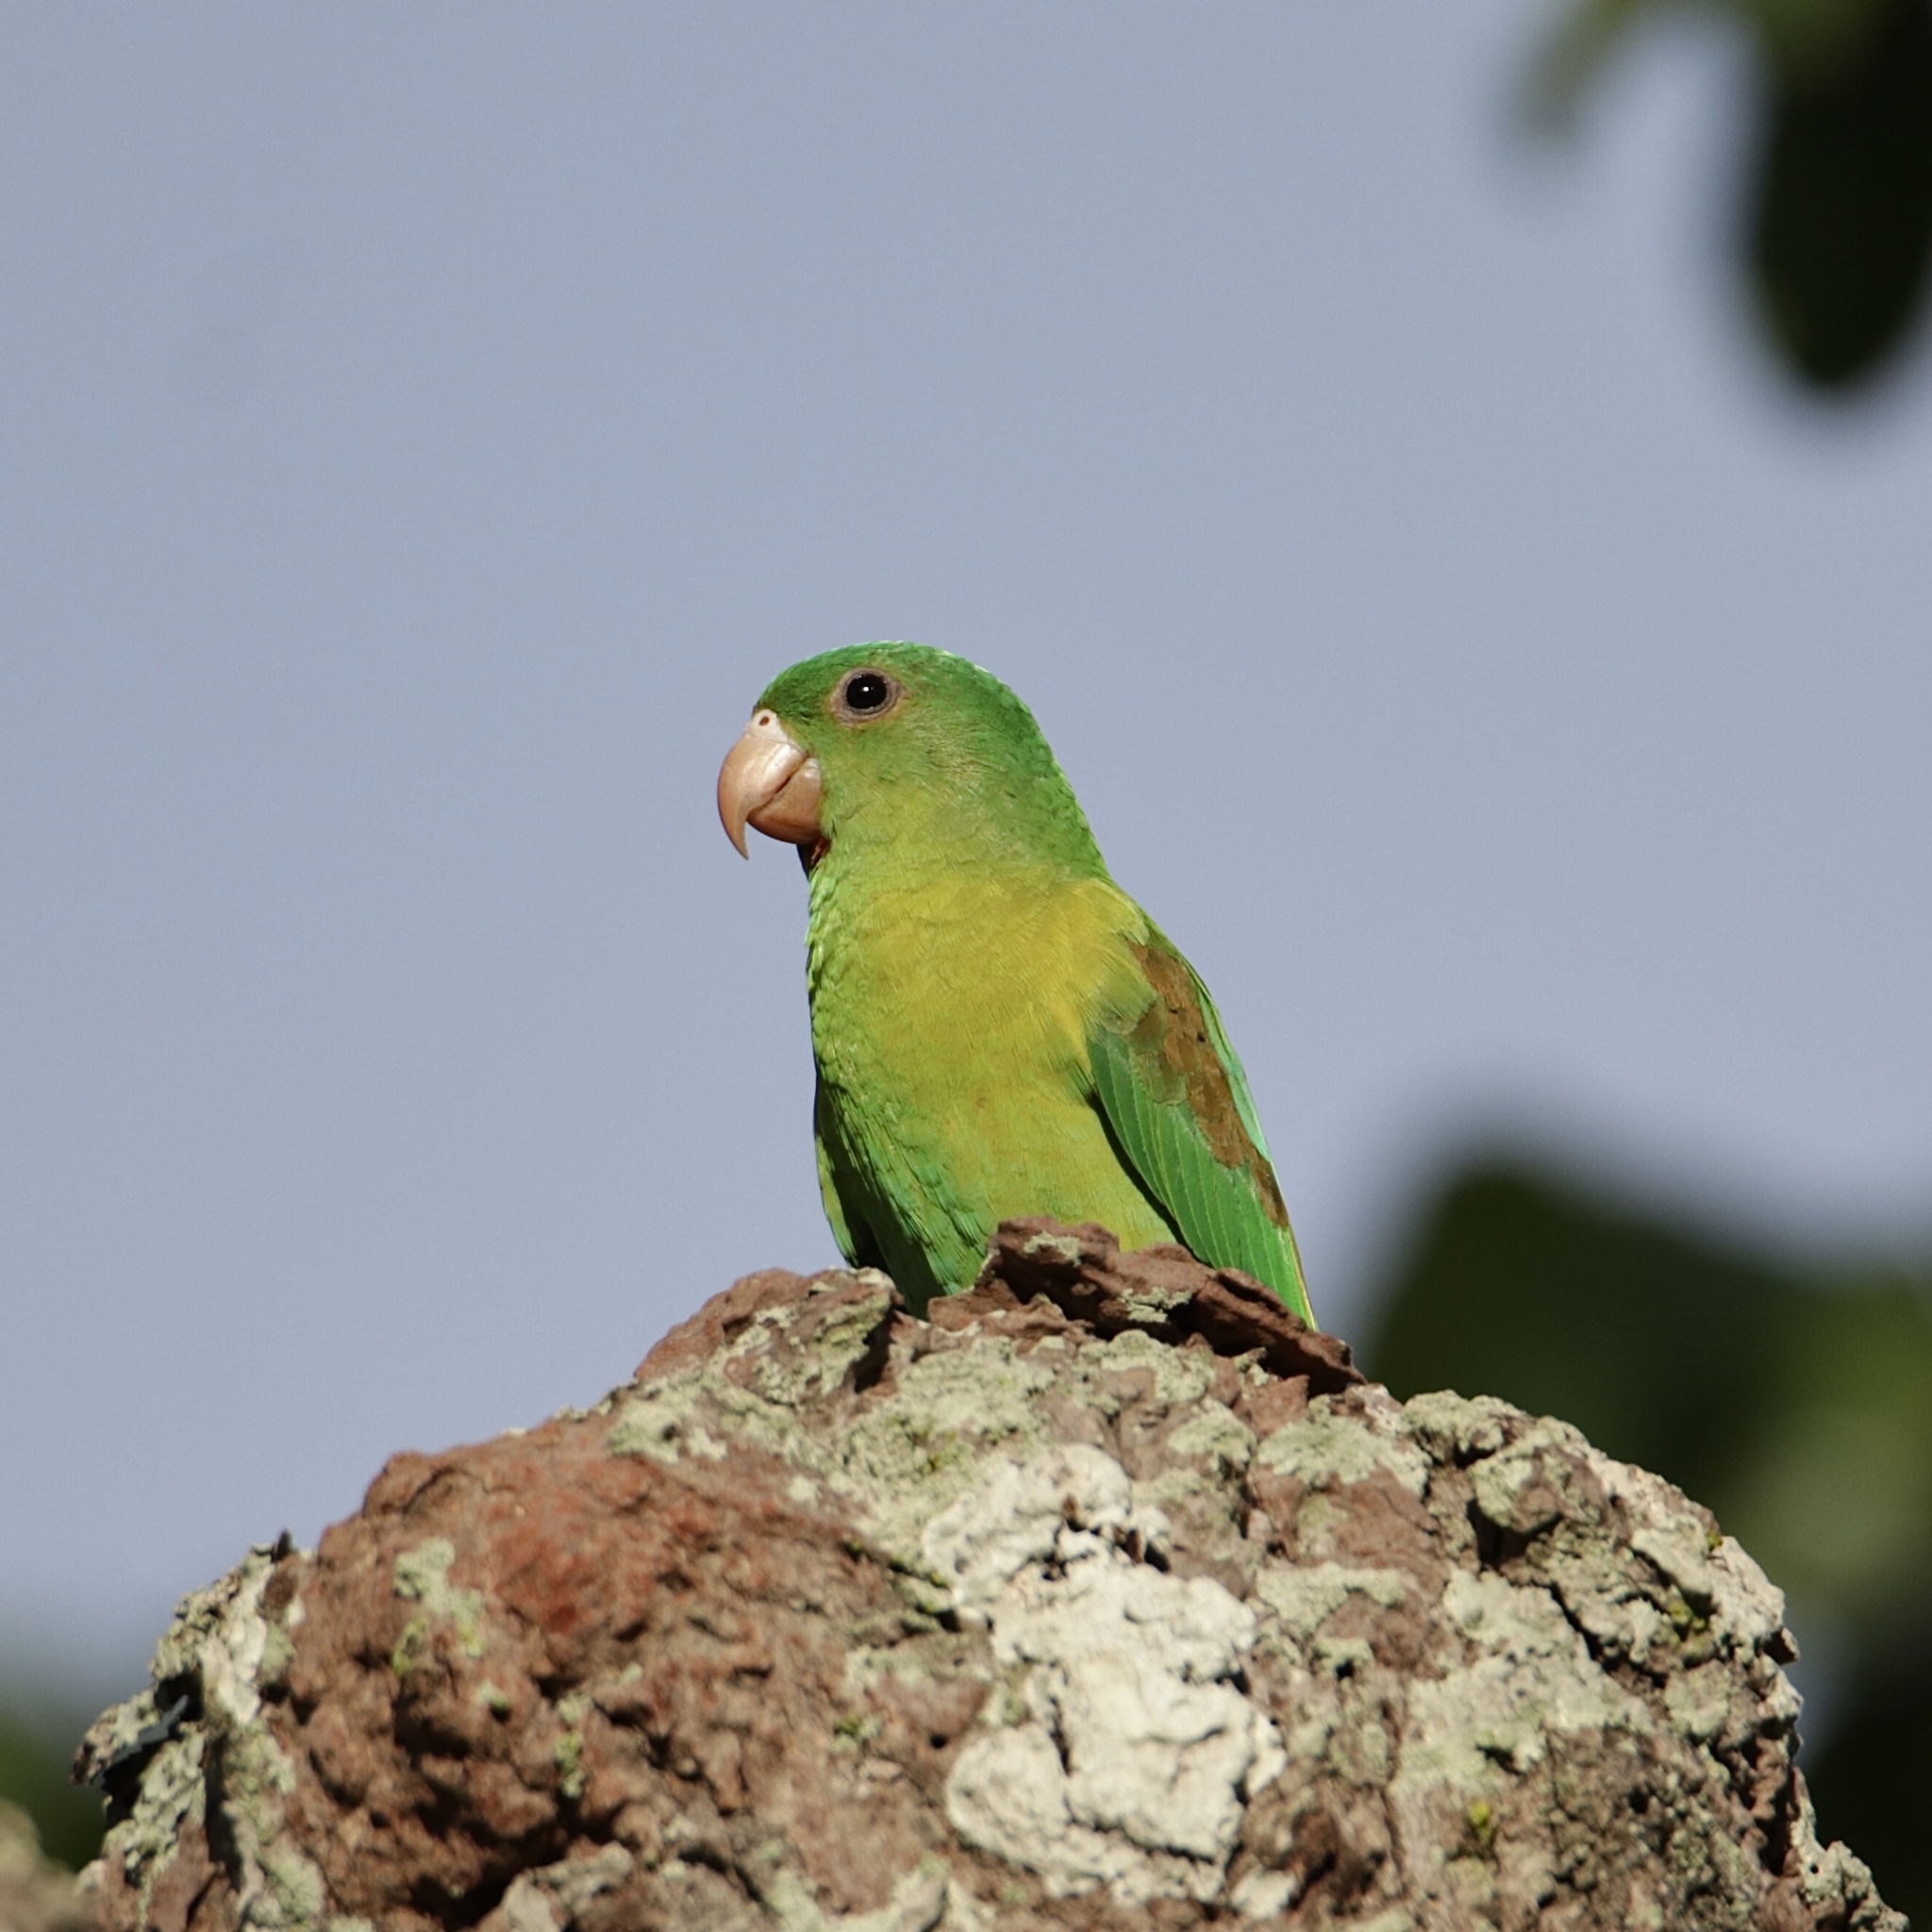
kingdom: Animalia
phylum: Chordata
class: Aves
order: Psittaciformes
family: Psittacidae
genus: Brotogeris
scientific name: Brotogeris jugularis
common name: Orange-chinned parakeet
